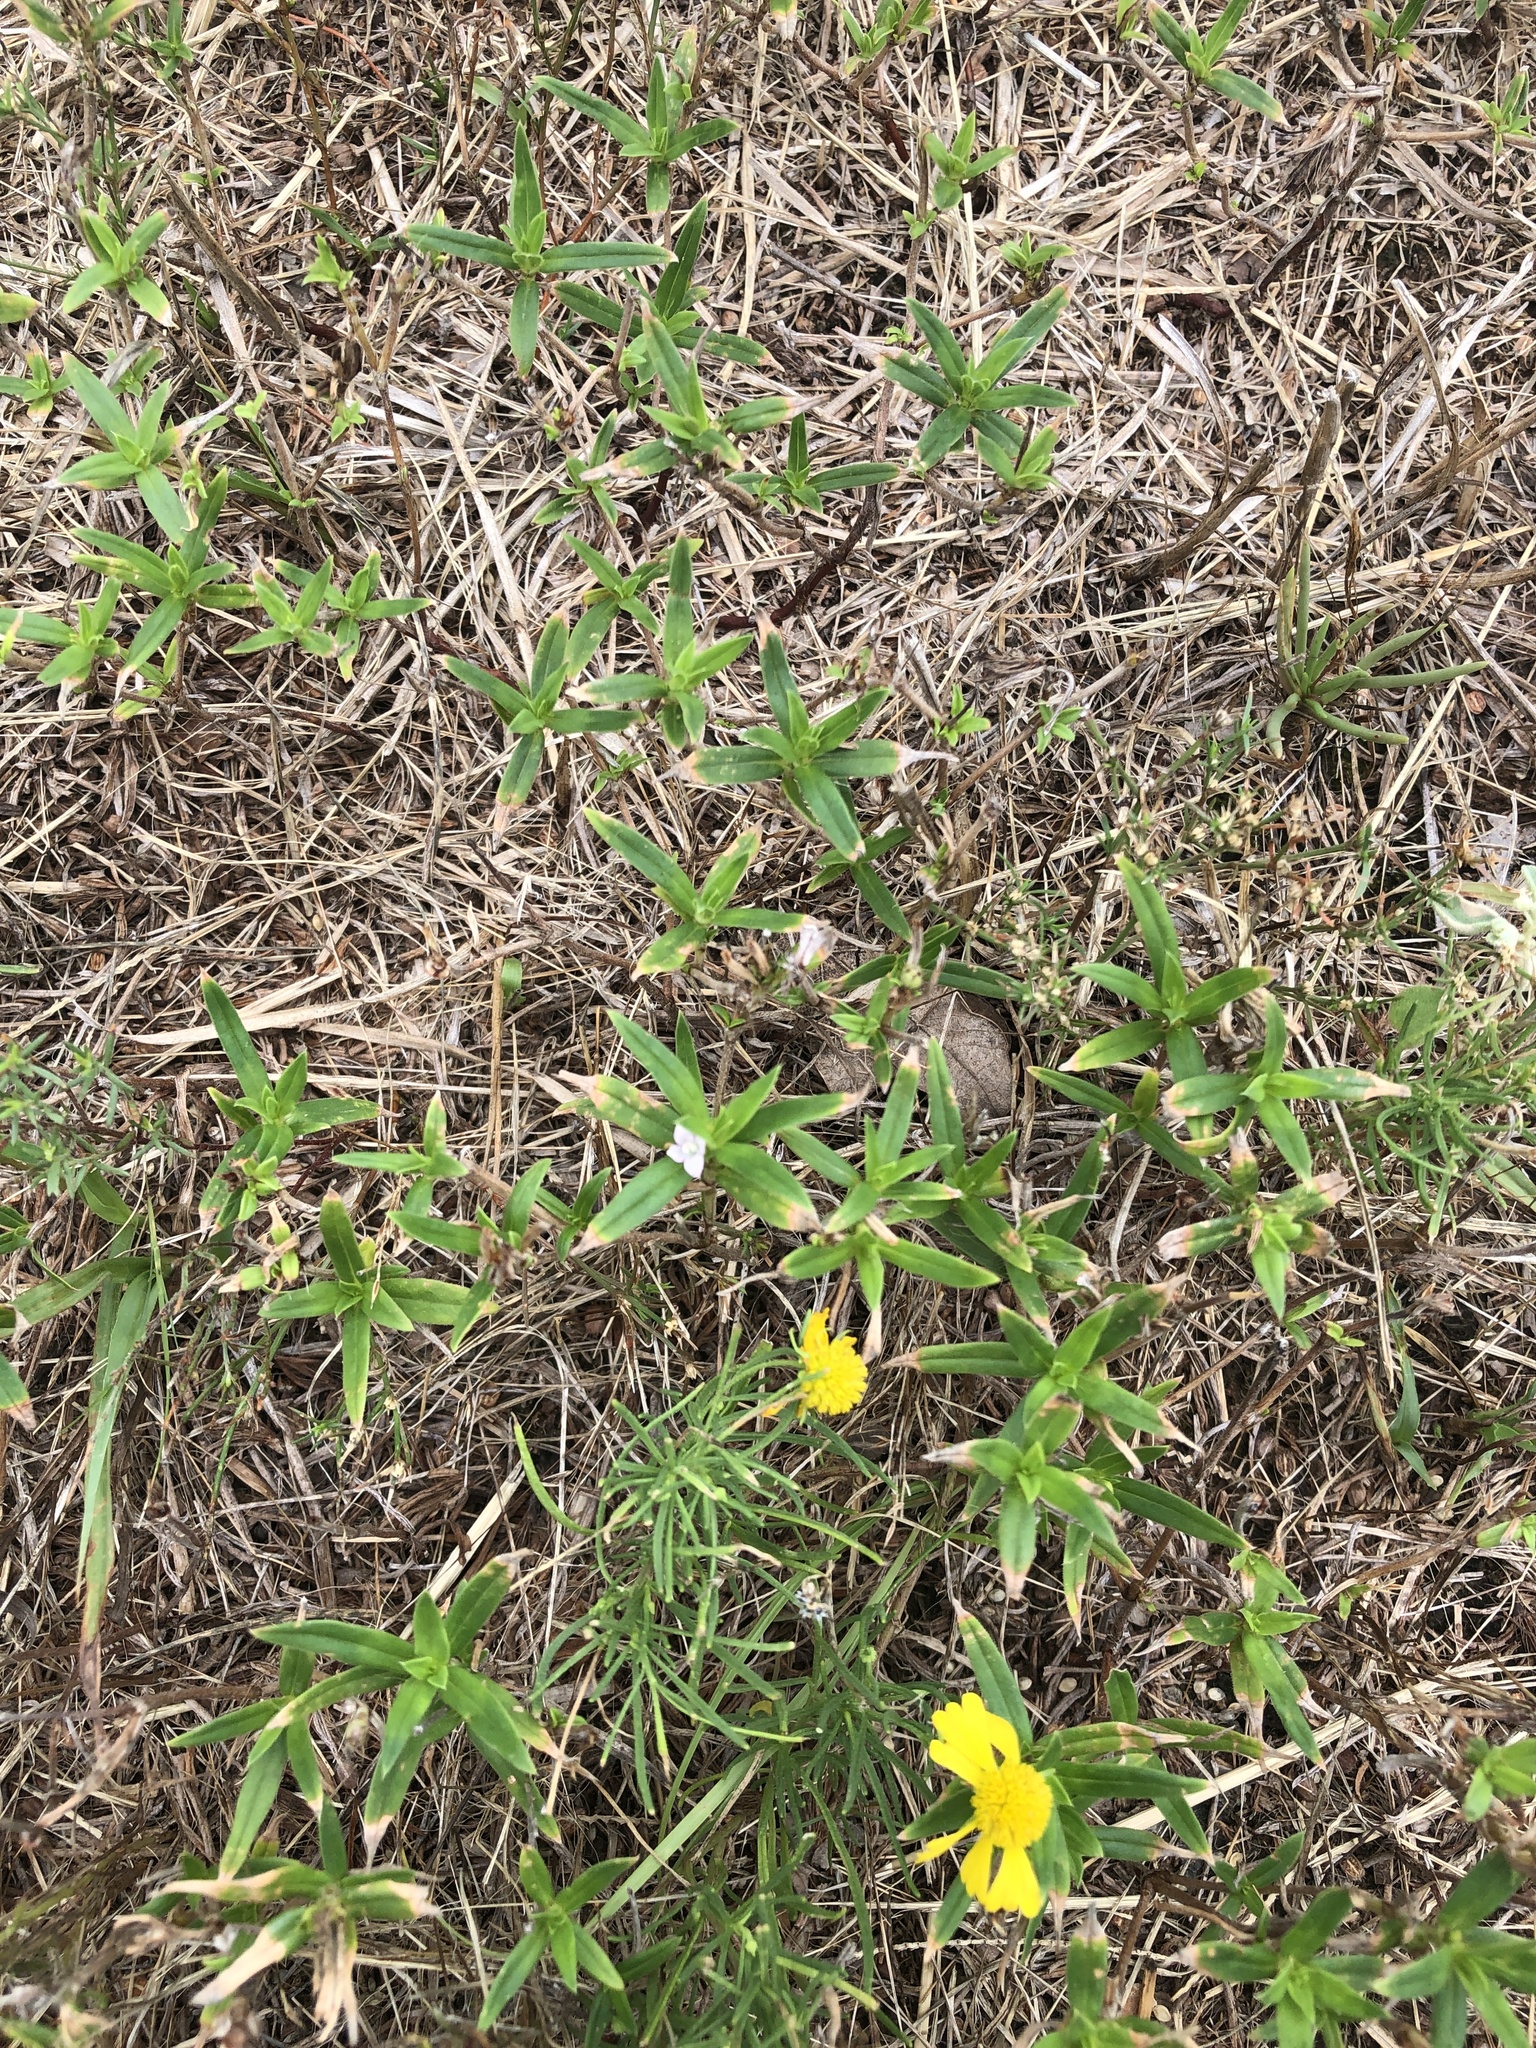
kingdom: Plantae
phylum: Tracheophyta
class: Magnoliopsida
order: Gentianales
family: Rubiaceae
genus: Hexasepalum
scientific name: Hexasepalum teres
